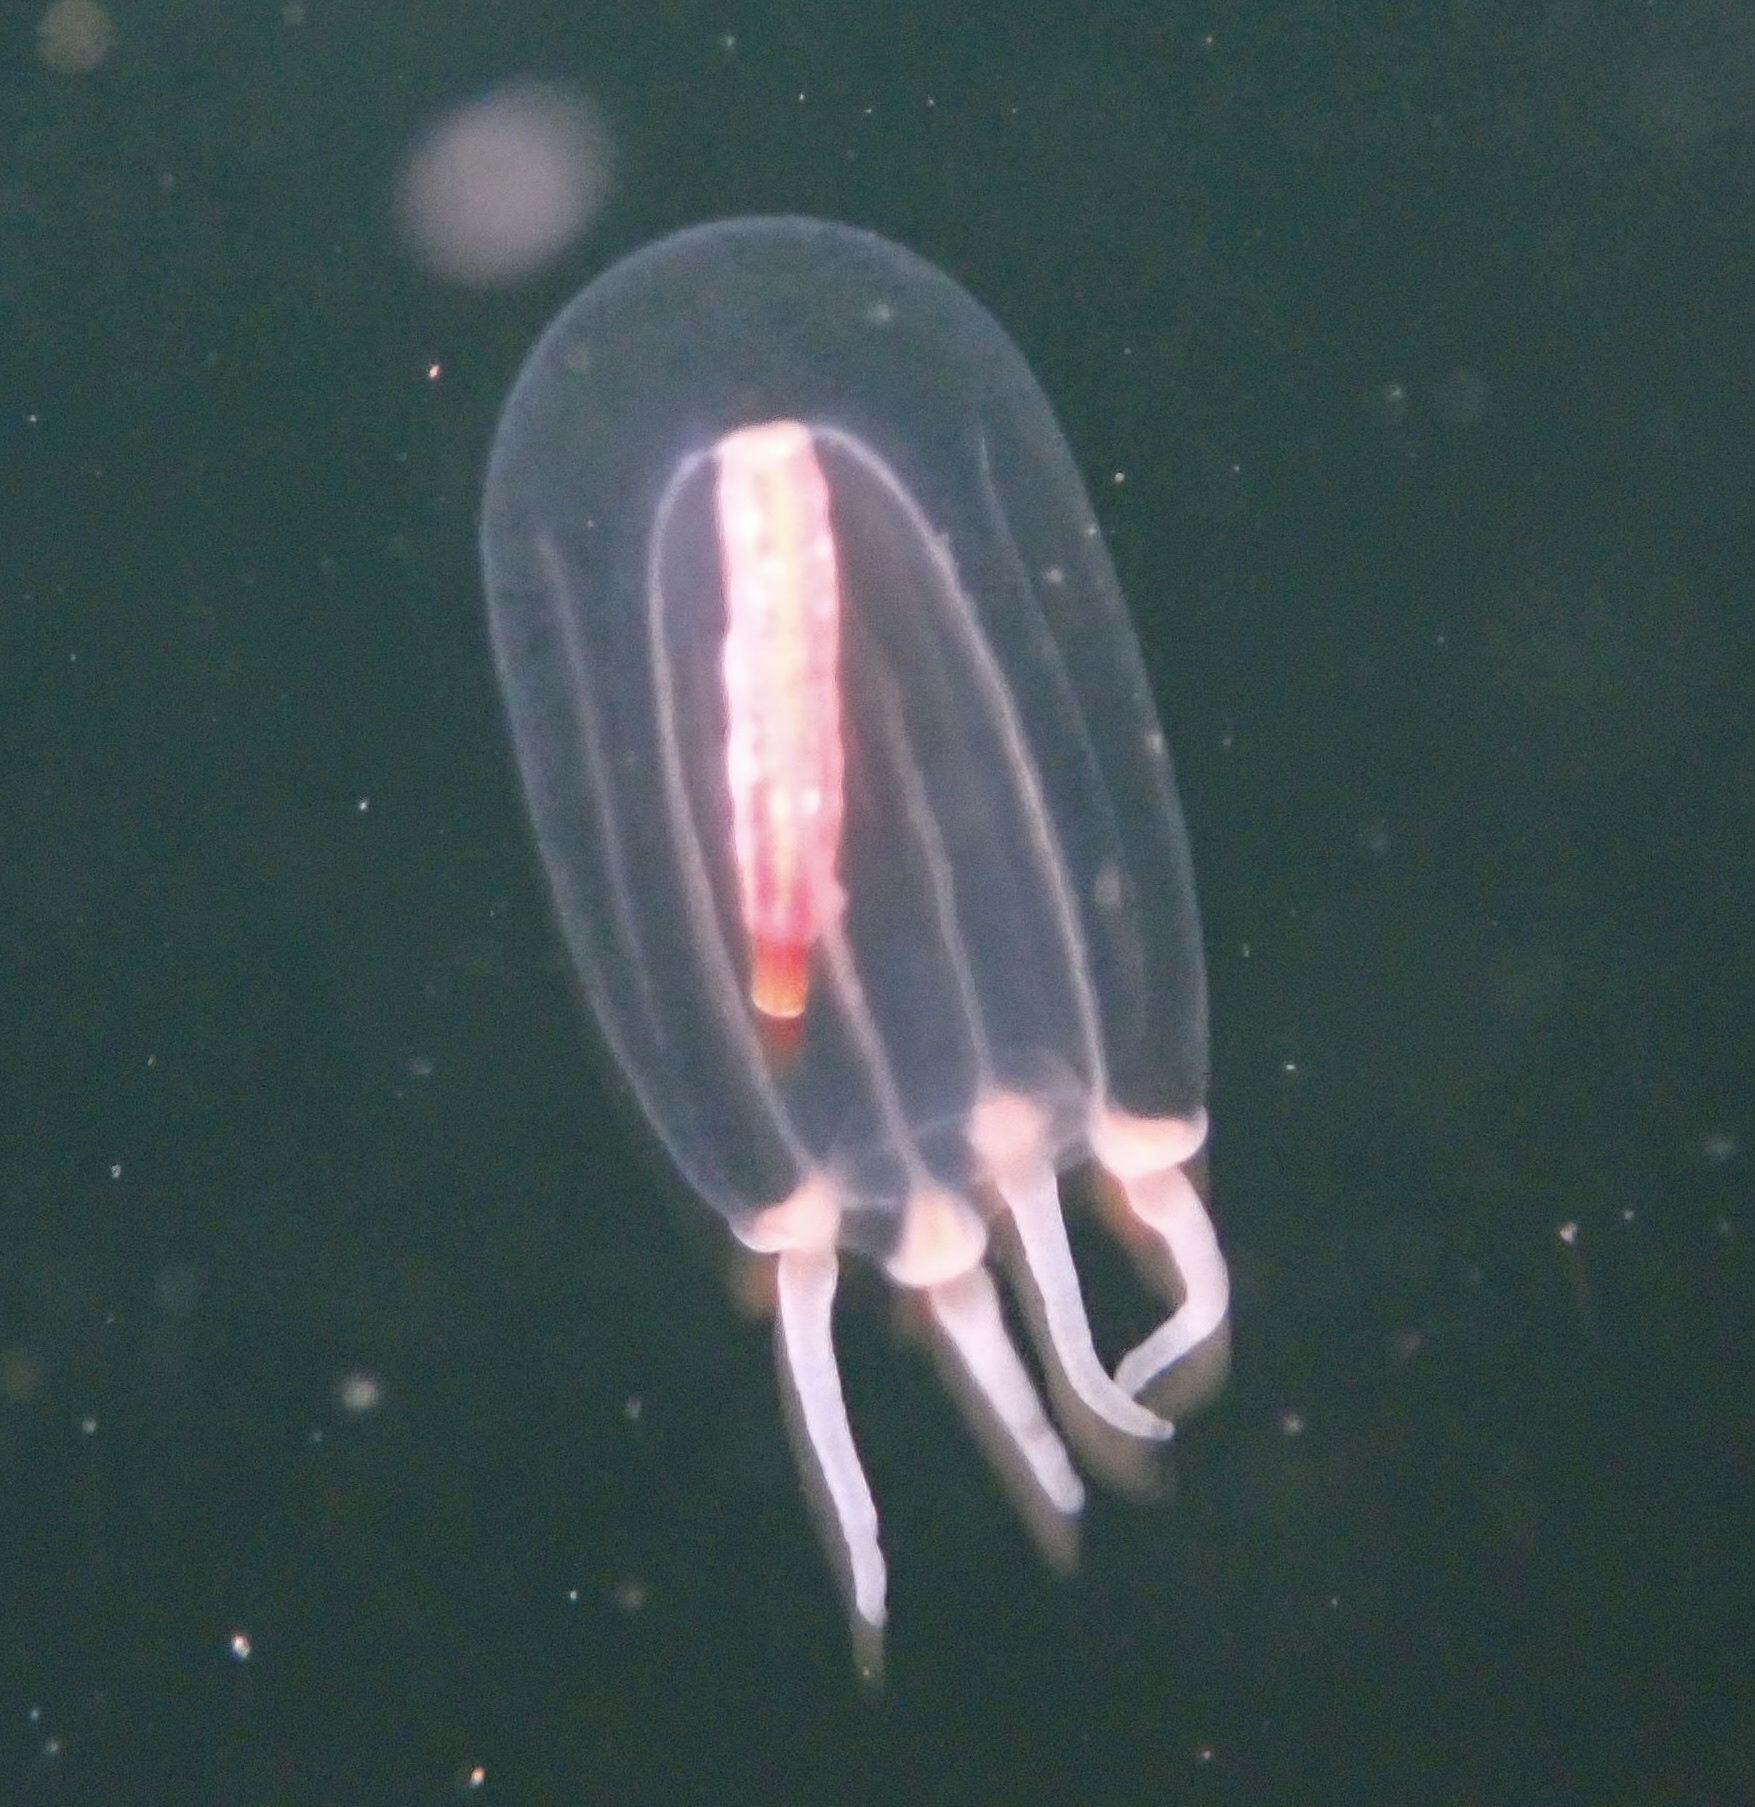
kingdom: Animalia
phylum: Cnidaria
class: Hydrozoa
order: Anthoathecata
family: Corymorphidae
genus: Euphysa
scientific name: Euphysa flammea
